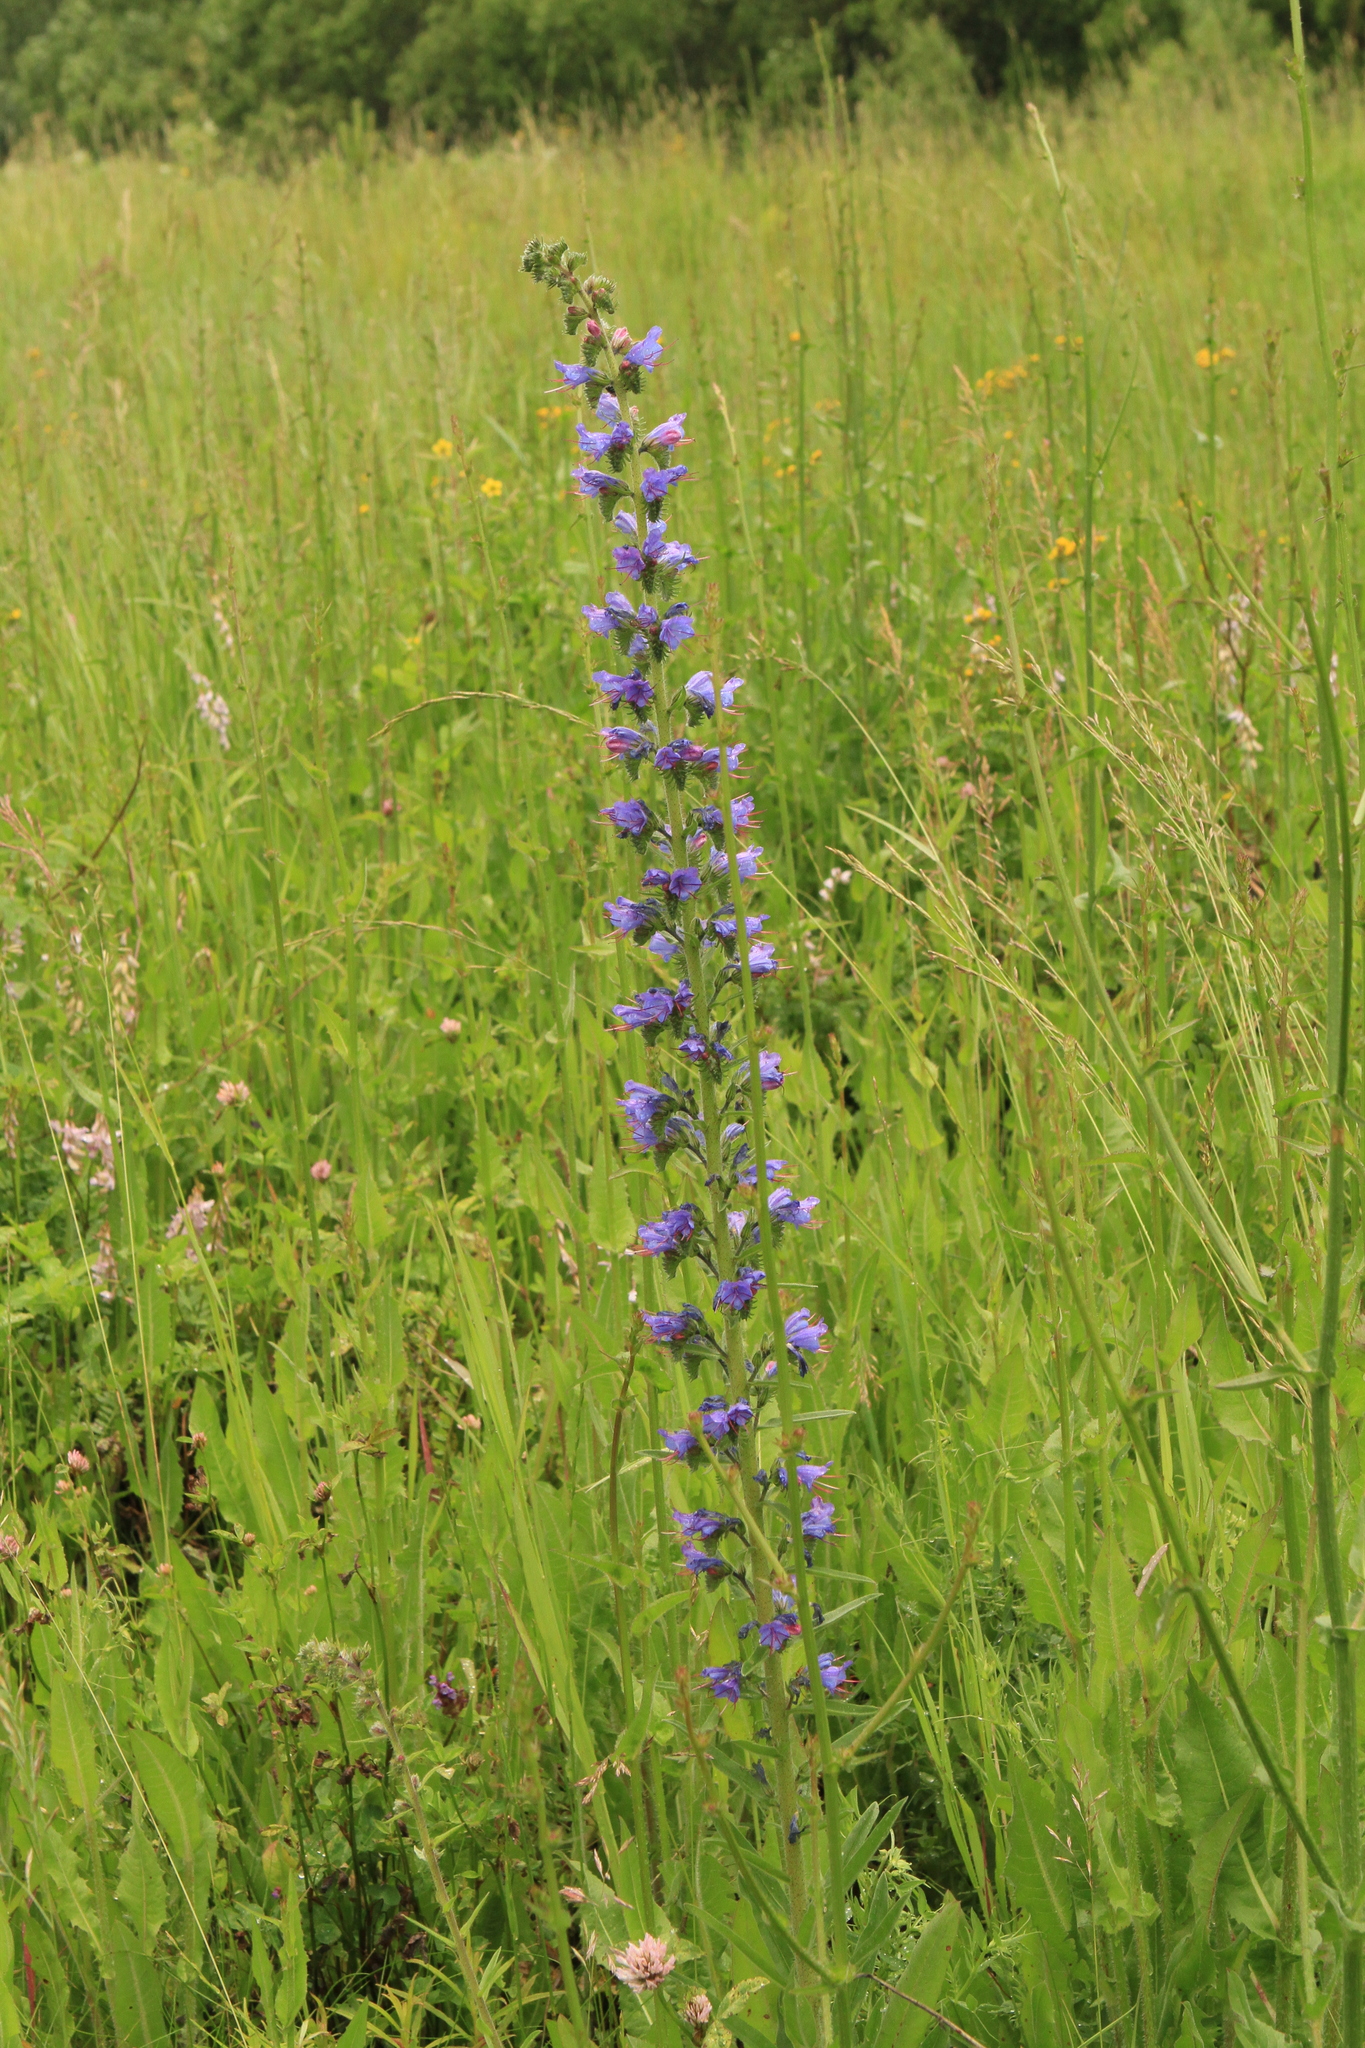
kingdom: Plantae
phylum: Tracheophyta
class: Magnoliopsida
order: Boraginales
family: Boraginaceae
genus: Echium
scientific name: Echium vulgare
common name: Common viper's bugloss
